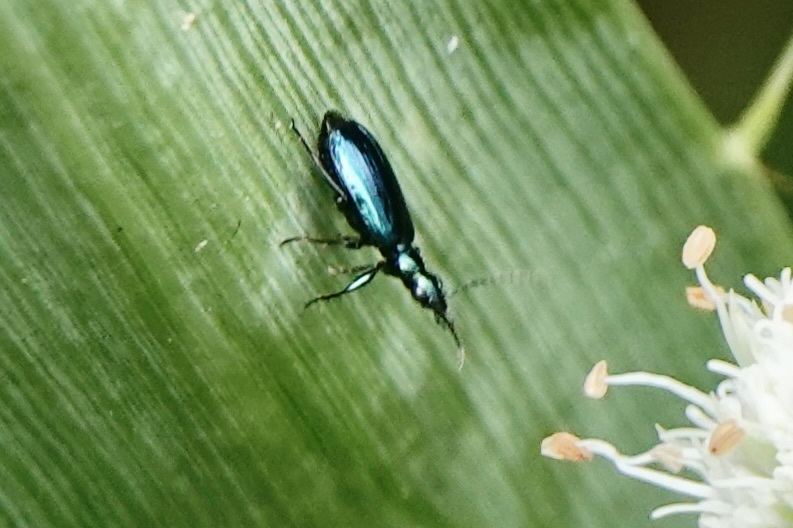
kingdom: Animalia
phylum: Arthropoda
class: Insecta
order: Coleoptera
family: Carabidae
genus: Lebia
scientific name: Lebia viridis
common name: Flower lebia beetle
